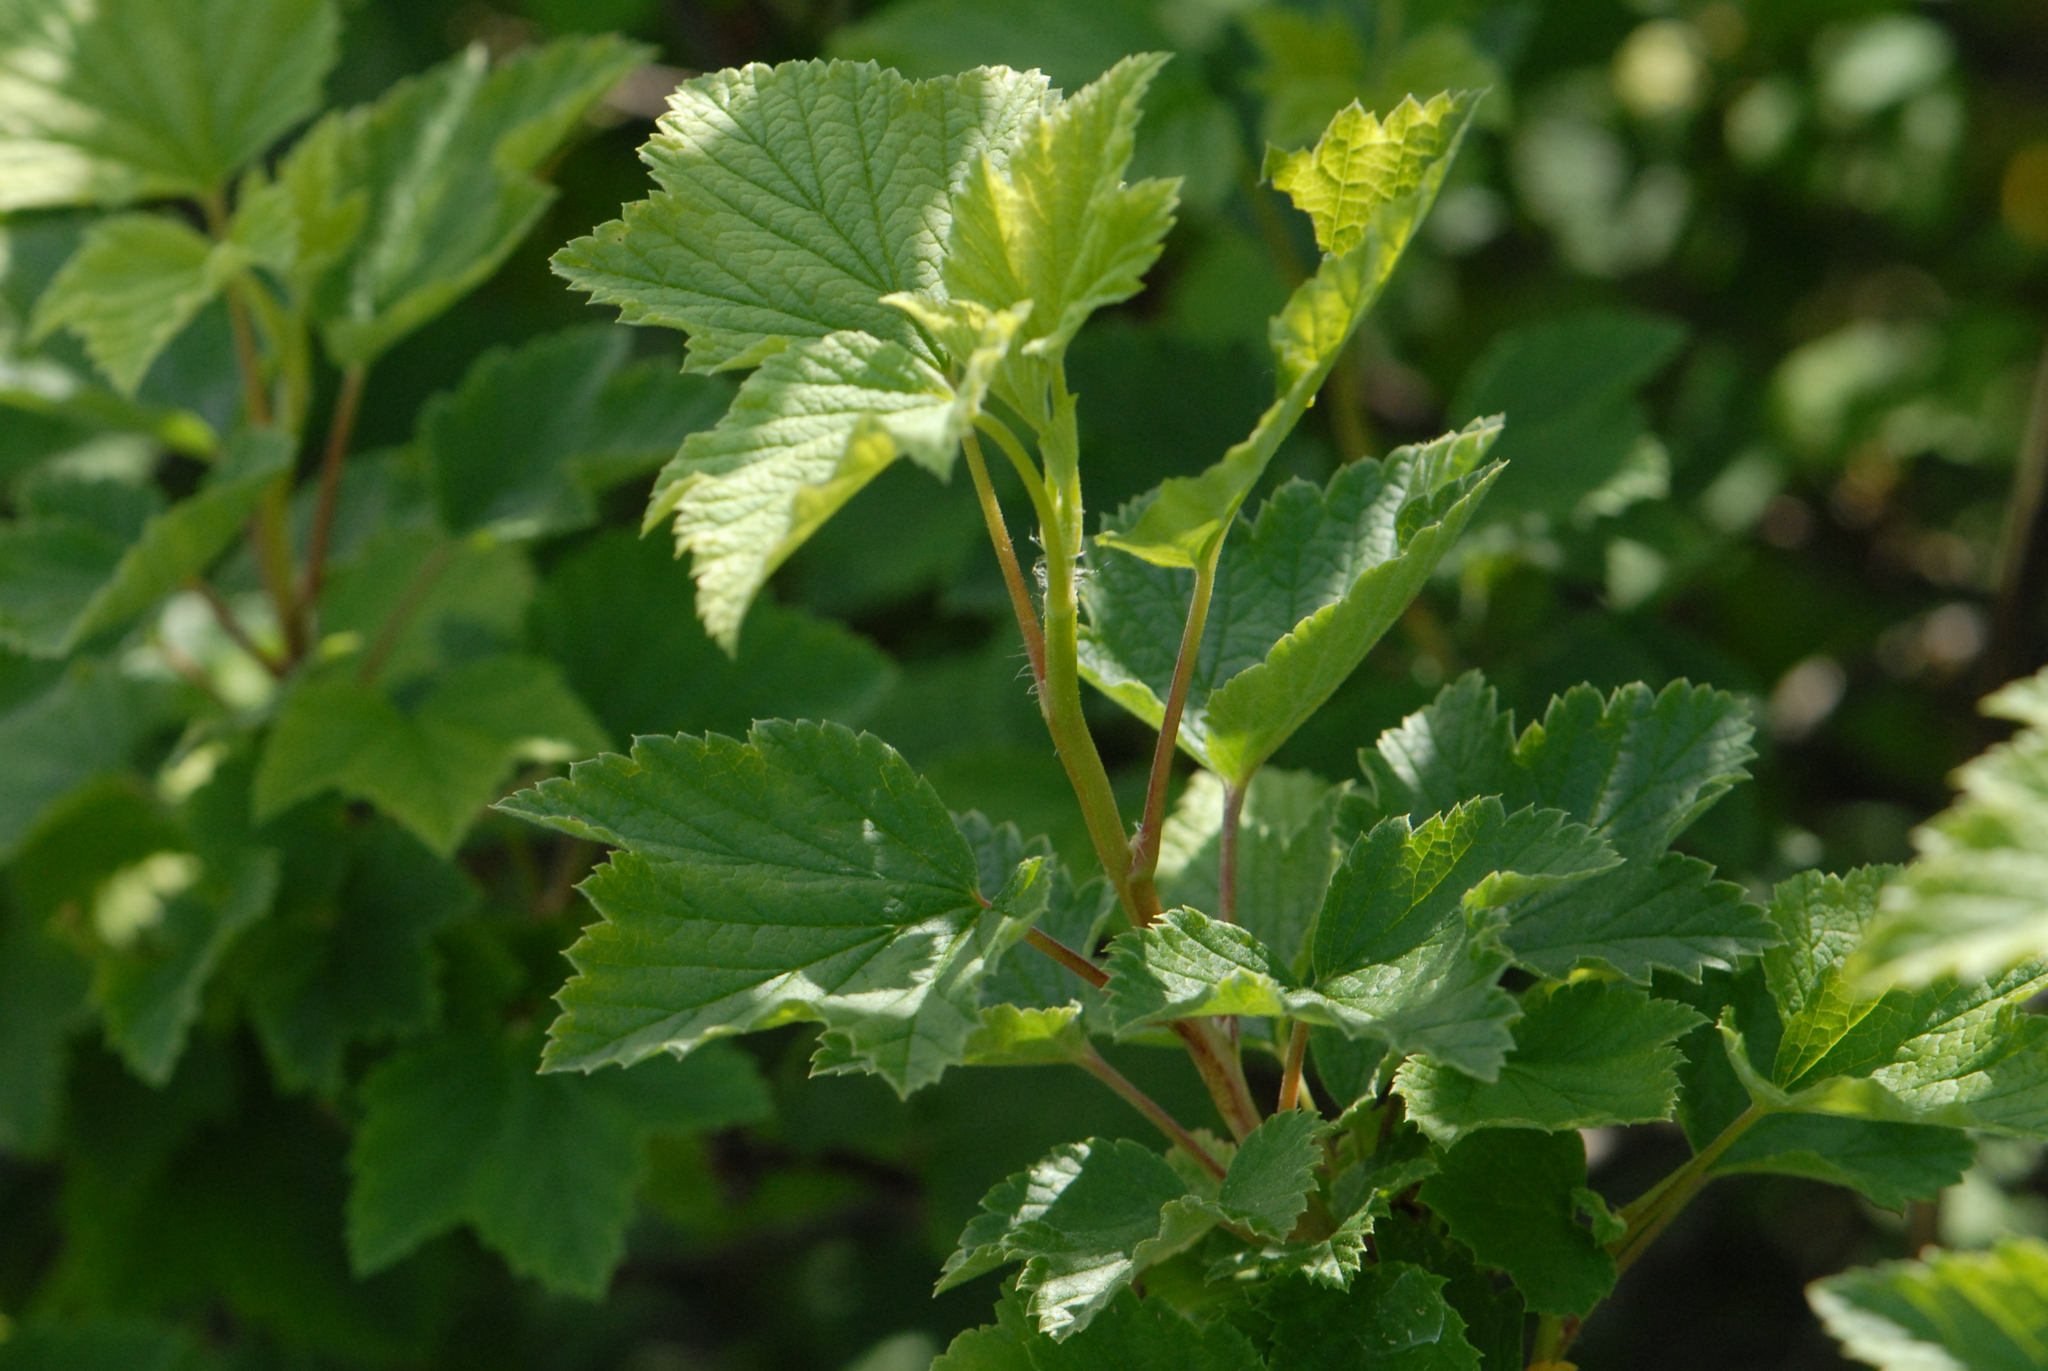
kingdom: Plantae
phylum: Tracheophyta
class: Magnoliopsida
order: Saxifragales
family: Grossulariaceae
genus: Ribes
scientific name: Ribes spicatum
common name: Downy currant
